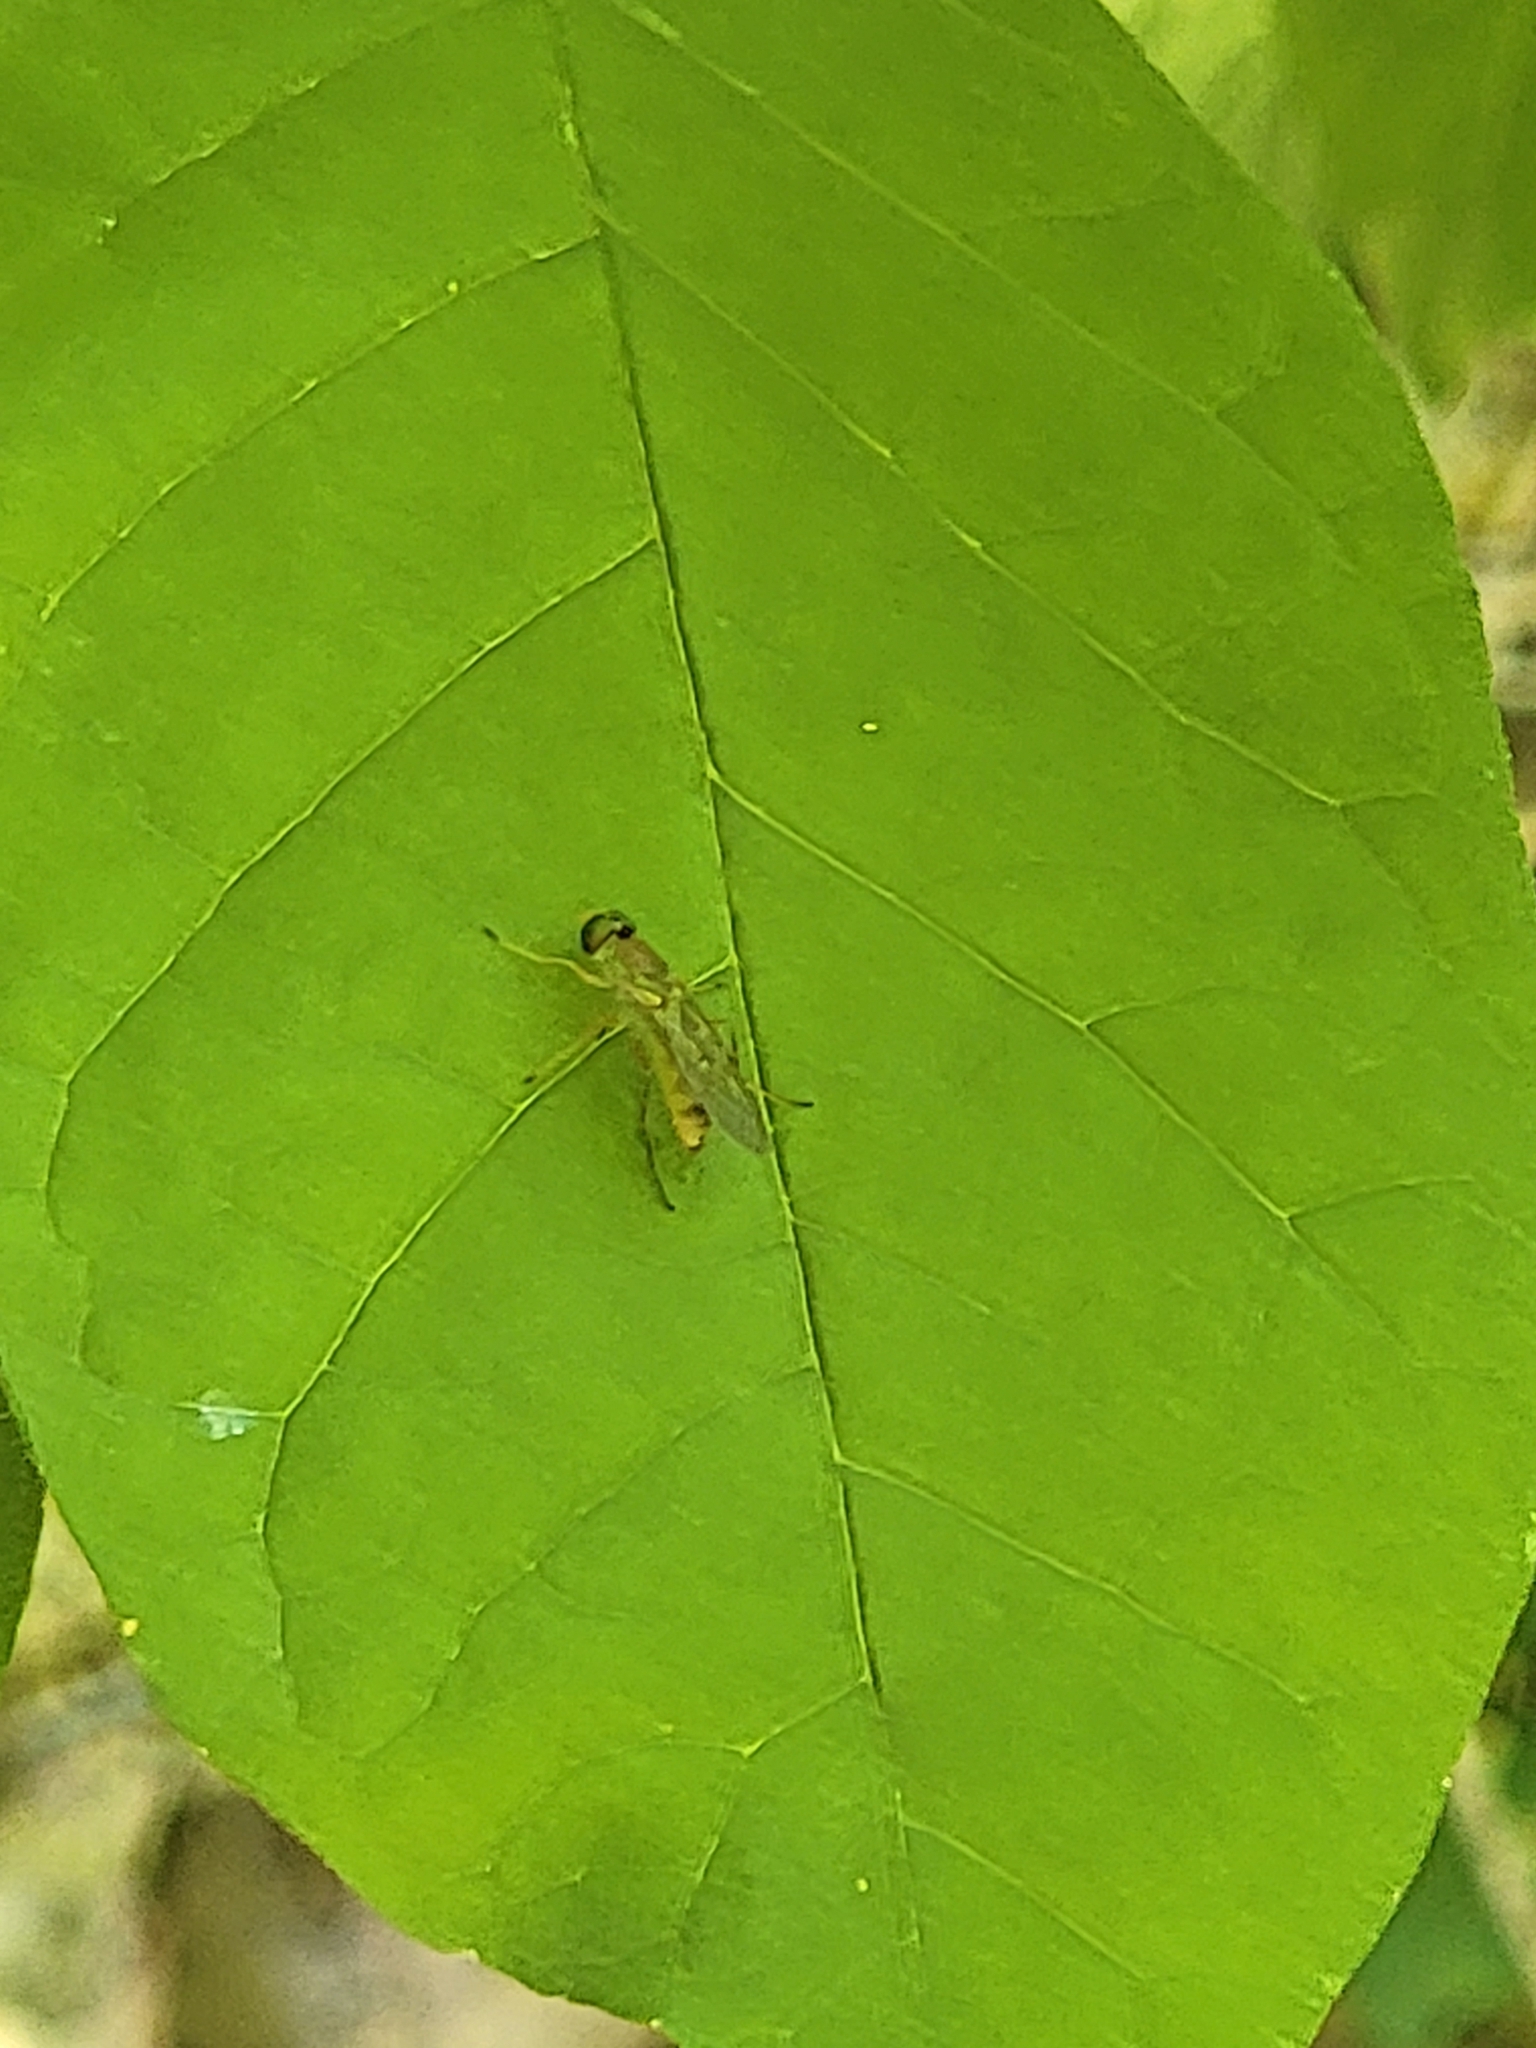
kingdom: Animalia
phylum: Arthropoda
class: Insecta
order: Diptera
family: Stratiomyidae
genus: Ptecticus
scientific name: Ptecticus trivittatus
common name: Compost fly
